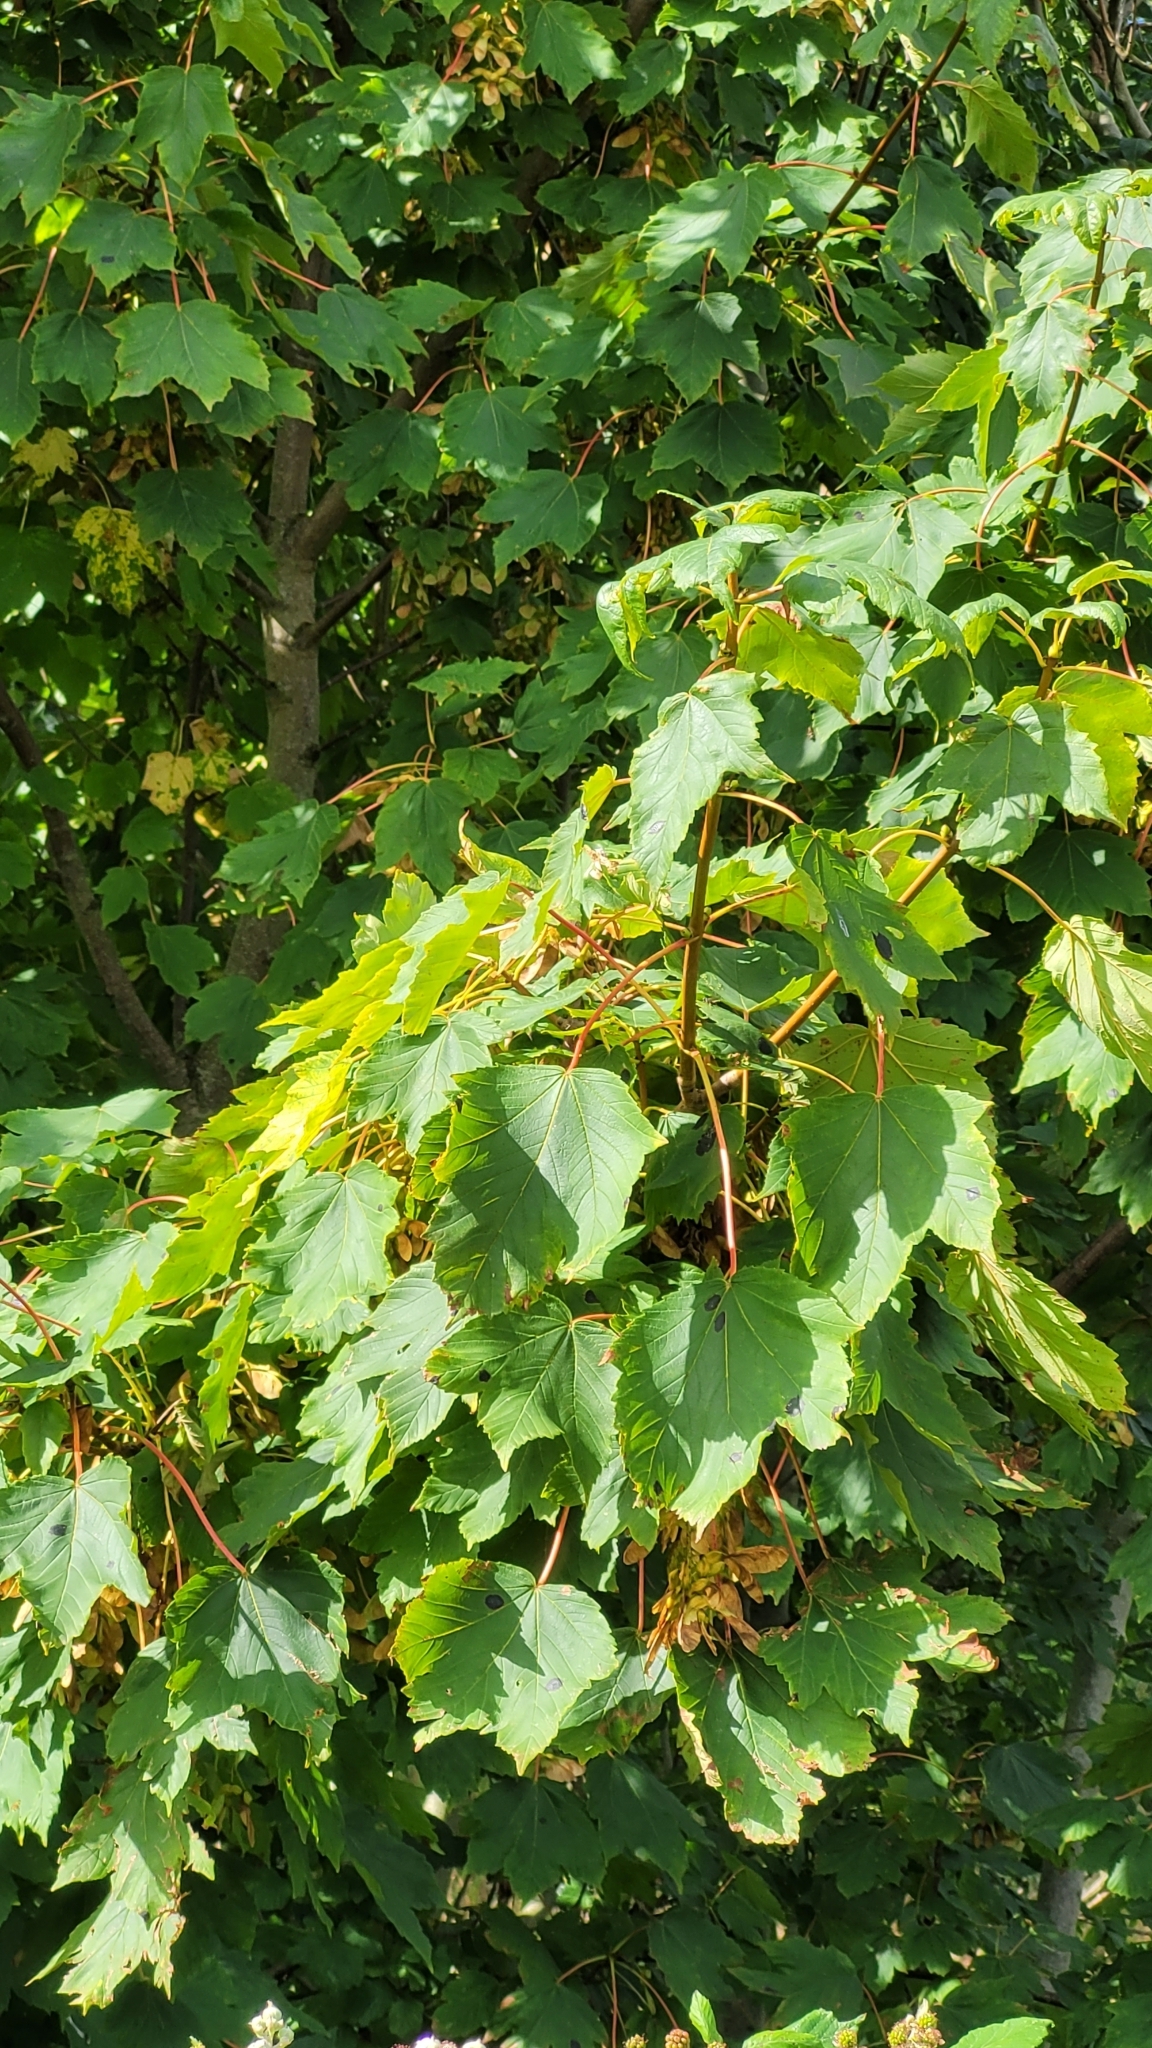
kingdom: Plantae
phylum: Tracheophyta
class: Magnoliopsida
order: Sapindales
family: Sapindaceae
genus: Acer
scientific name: Acer pseudoplatanus
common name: Sycamore
